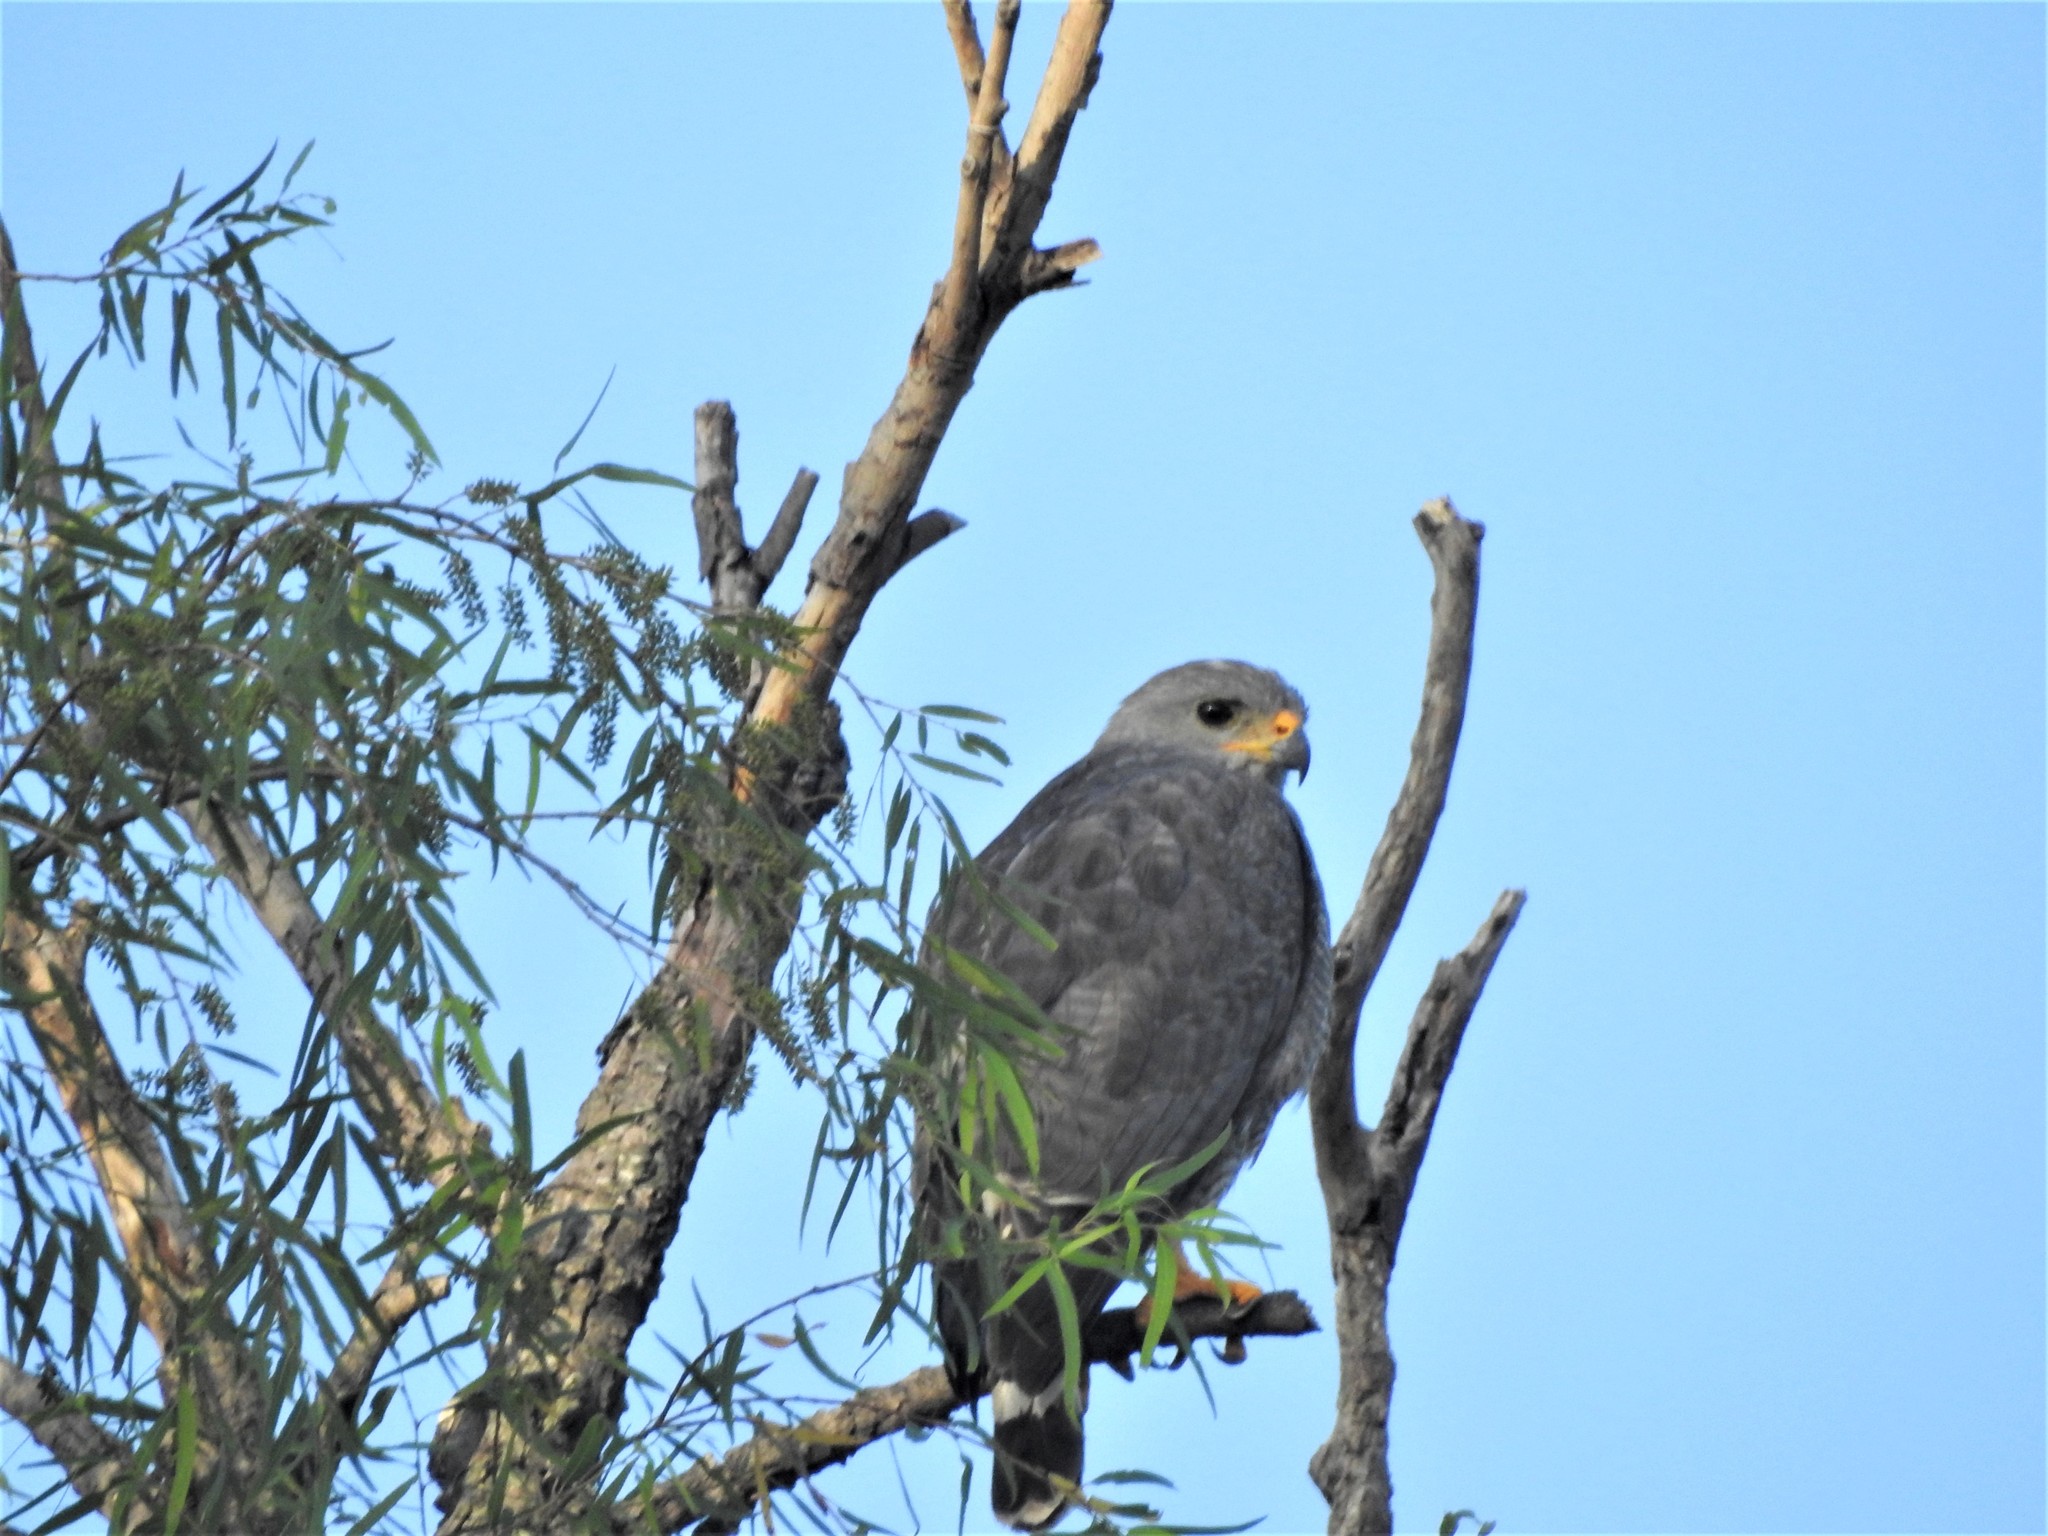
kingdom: Animalia
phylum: Chordata
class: Aves
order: Accipitriformes
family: Accipitridae
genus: Buteo
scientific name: Buteo nitidus
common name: Grey-lined hawk
